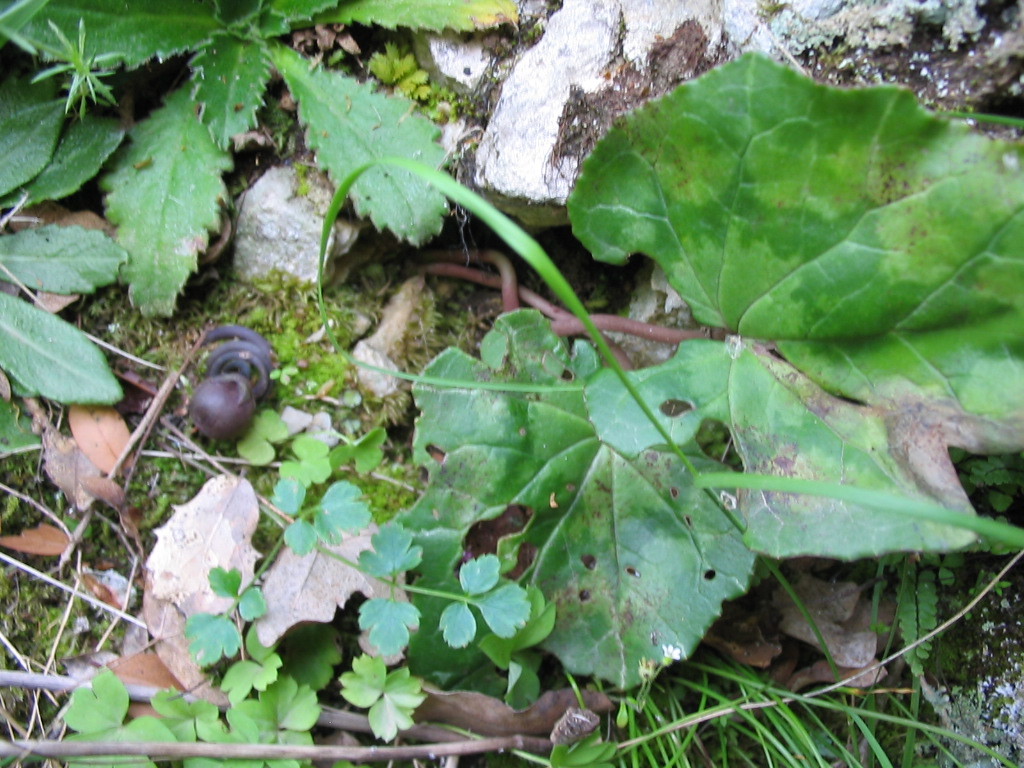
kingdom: Plantae
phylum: Tracheophyta
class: Magnoliopsida
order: Ericales
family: Primulaceae
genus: Cyclamen
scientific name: Cyclamen hederifolium
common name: Sowbread
